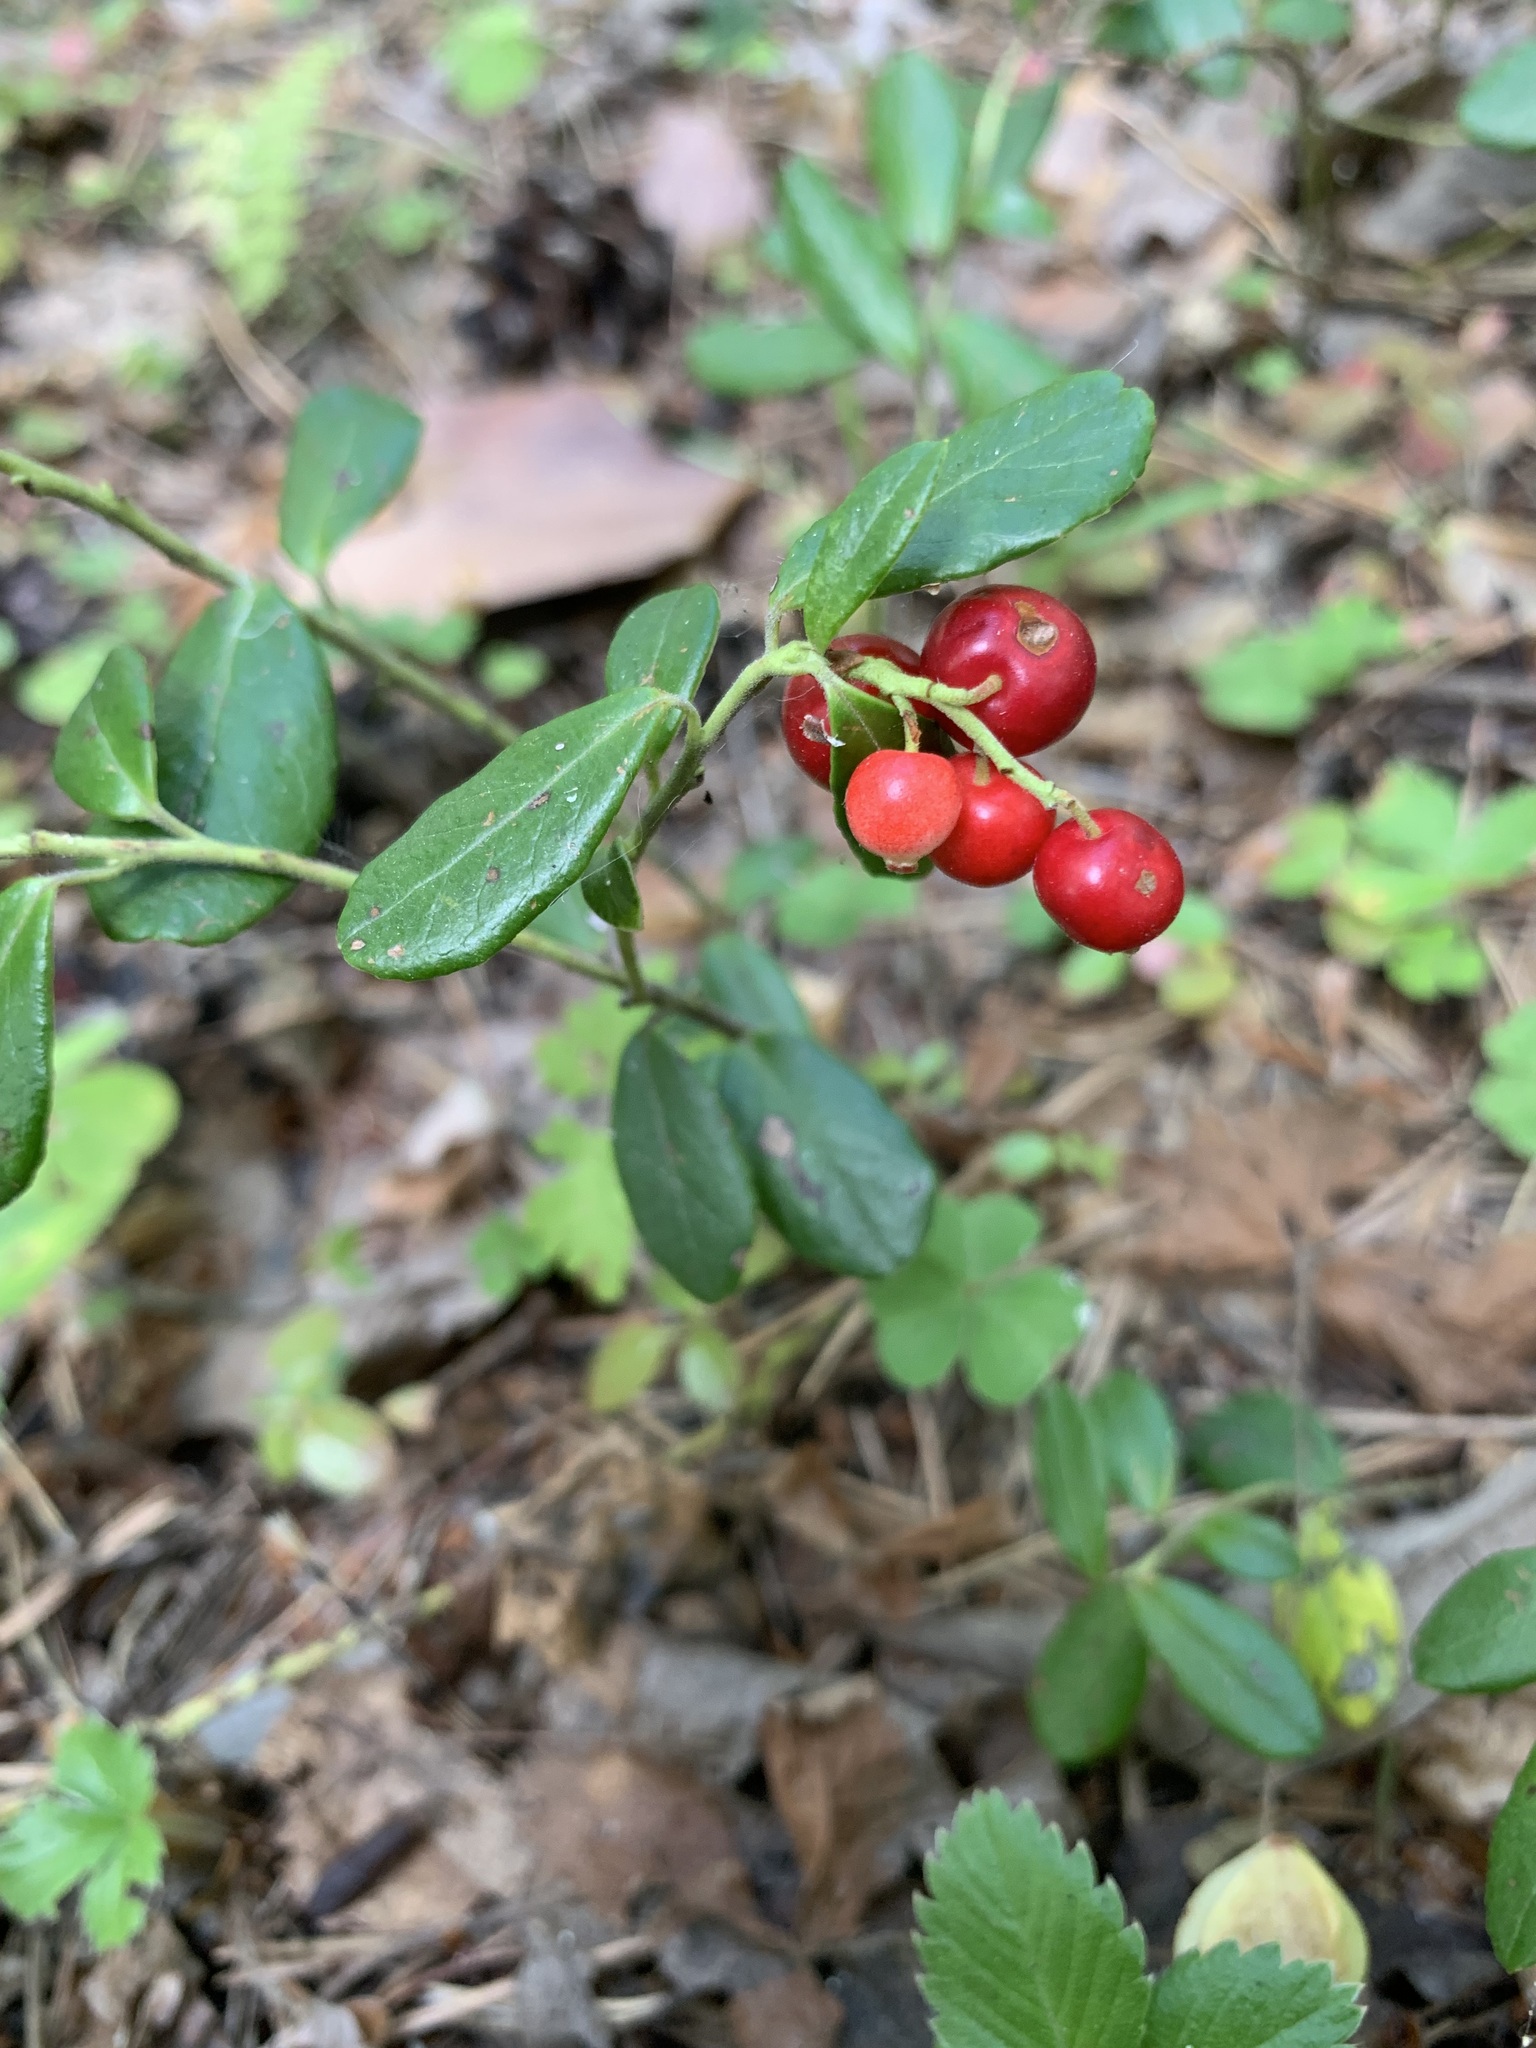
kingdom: Plantae
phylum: Tracheophyta
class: Magnoliopsida
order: Ericales
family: Ericaceae
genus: Vaccinium
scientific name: Vaccinium vitis-idaea
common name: Cowberry
